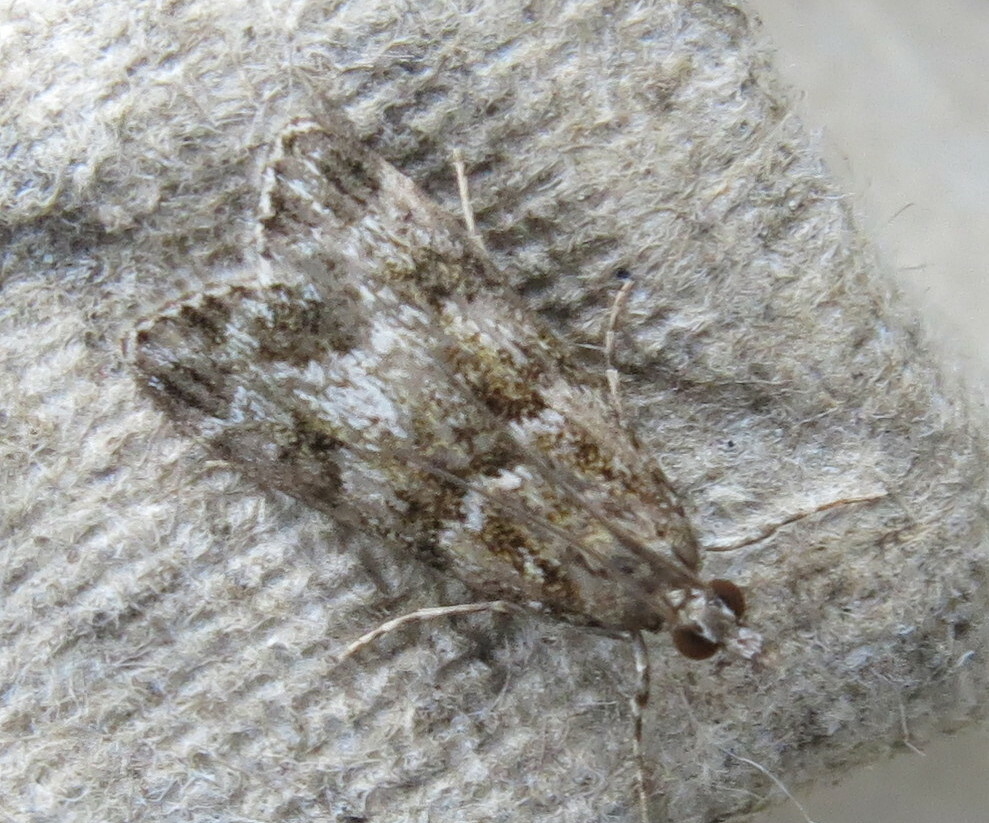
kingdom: Animalia
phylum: Arthropoda
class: Insecta
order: Lepidoptera
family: Crambidae
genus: Eudonia
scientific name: Eudonia mercurella
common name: Small grey
